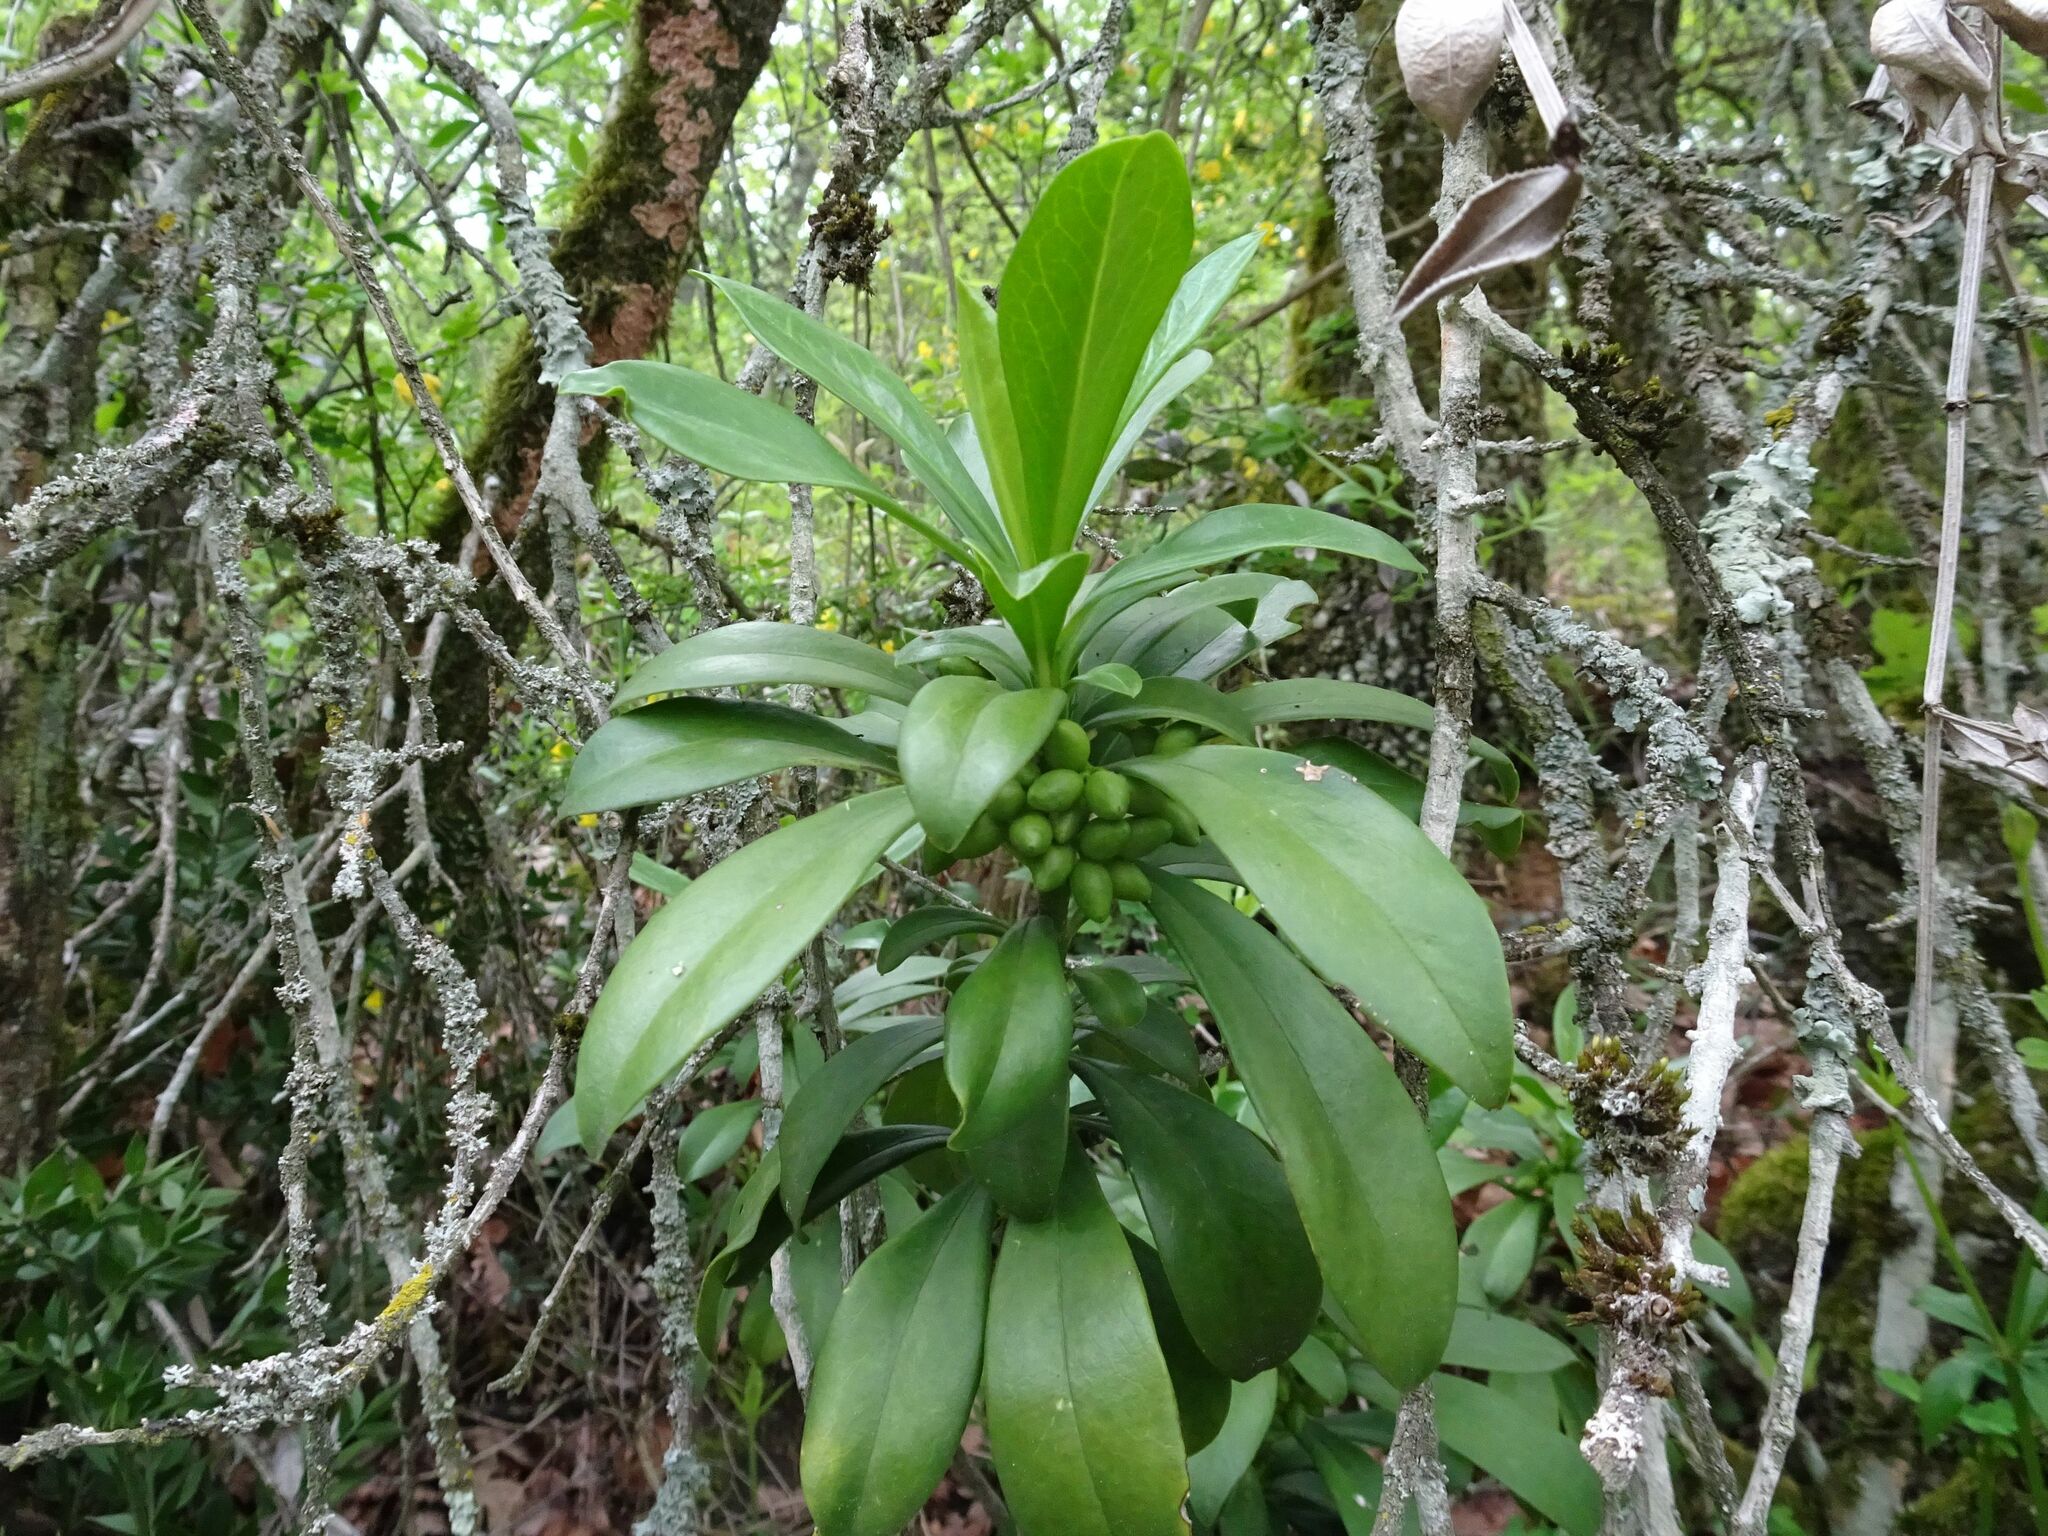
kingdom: Plantae
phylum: Tracheophyta
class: Magnoliopsida
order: Malvales
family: Thymelaeaceae
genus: Daphne
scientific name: Daphne laureola
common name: Spurge-laurel
